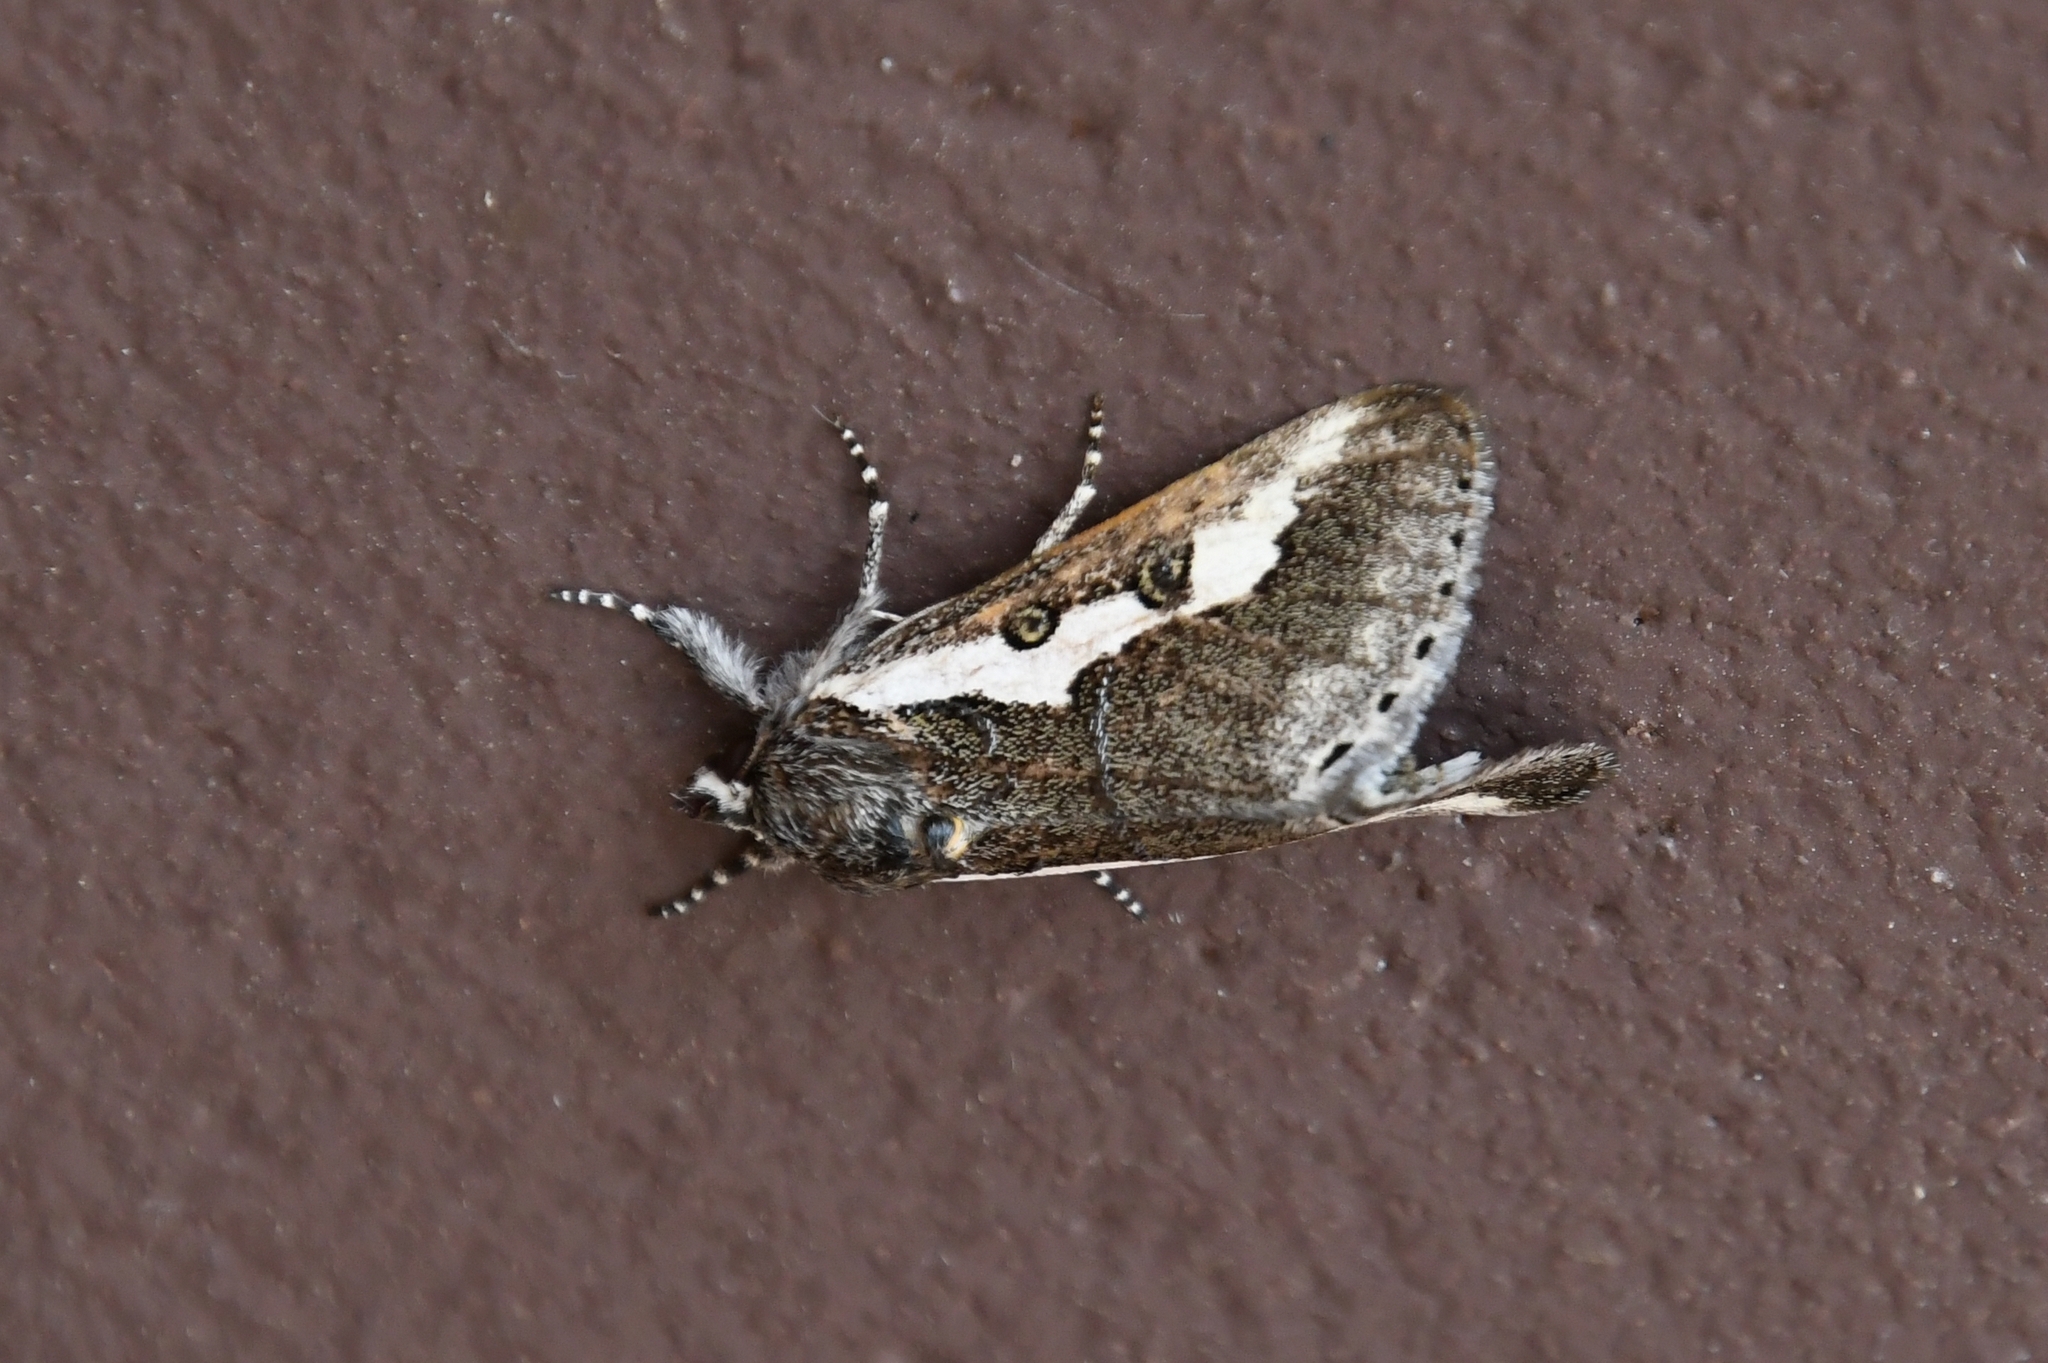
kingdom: Animalia
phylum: Arthropoda
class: Insecta
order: Lepidoptera
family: Noctuidae
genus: Euscirrhopterus
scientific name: Euscirrhopterus gloveri
